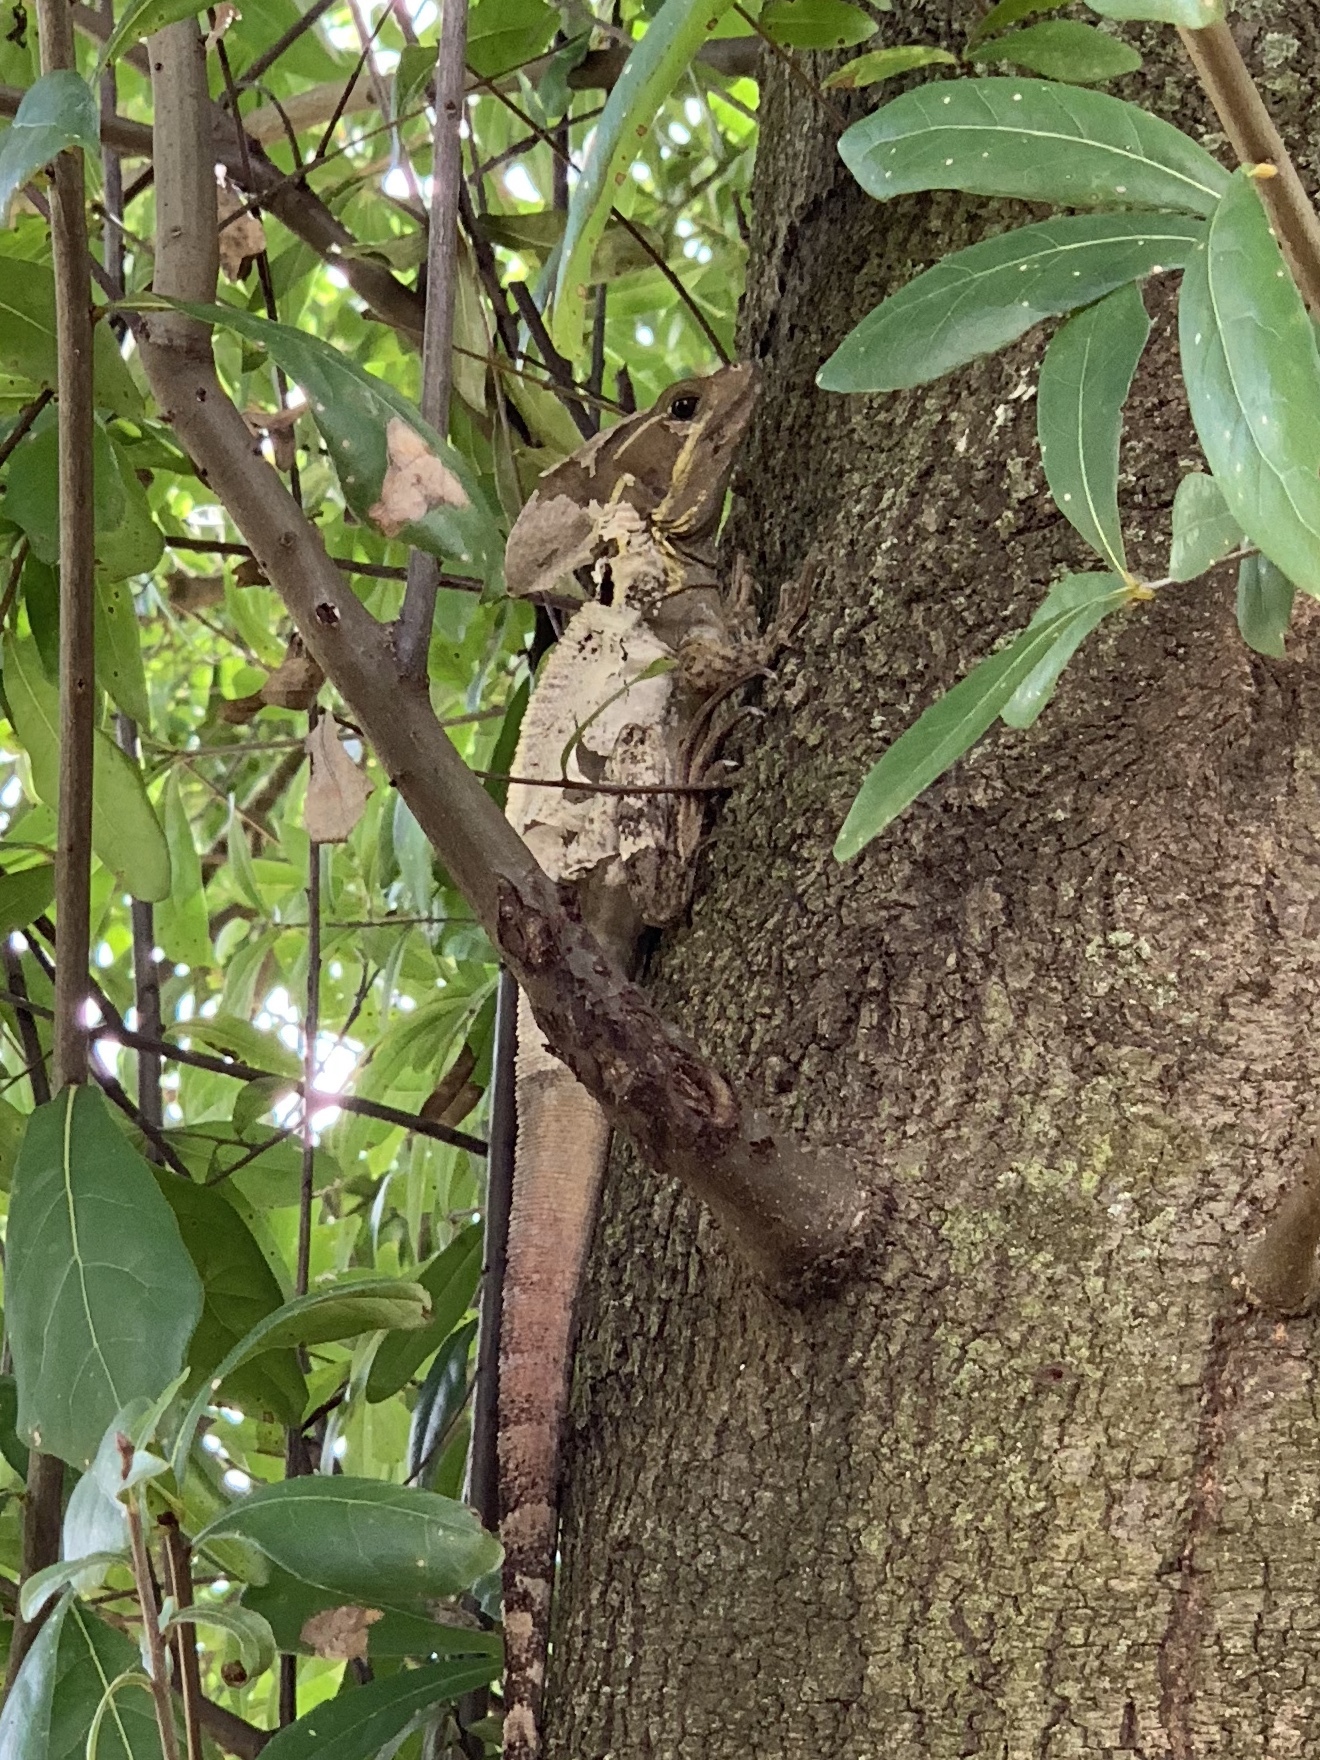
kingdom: Animalia
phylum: Chordata
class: Squamata
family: Corytophanidae
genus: Basiliscus
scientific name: Basiliscus vittatus
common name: Brown basilisk
